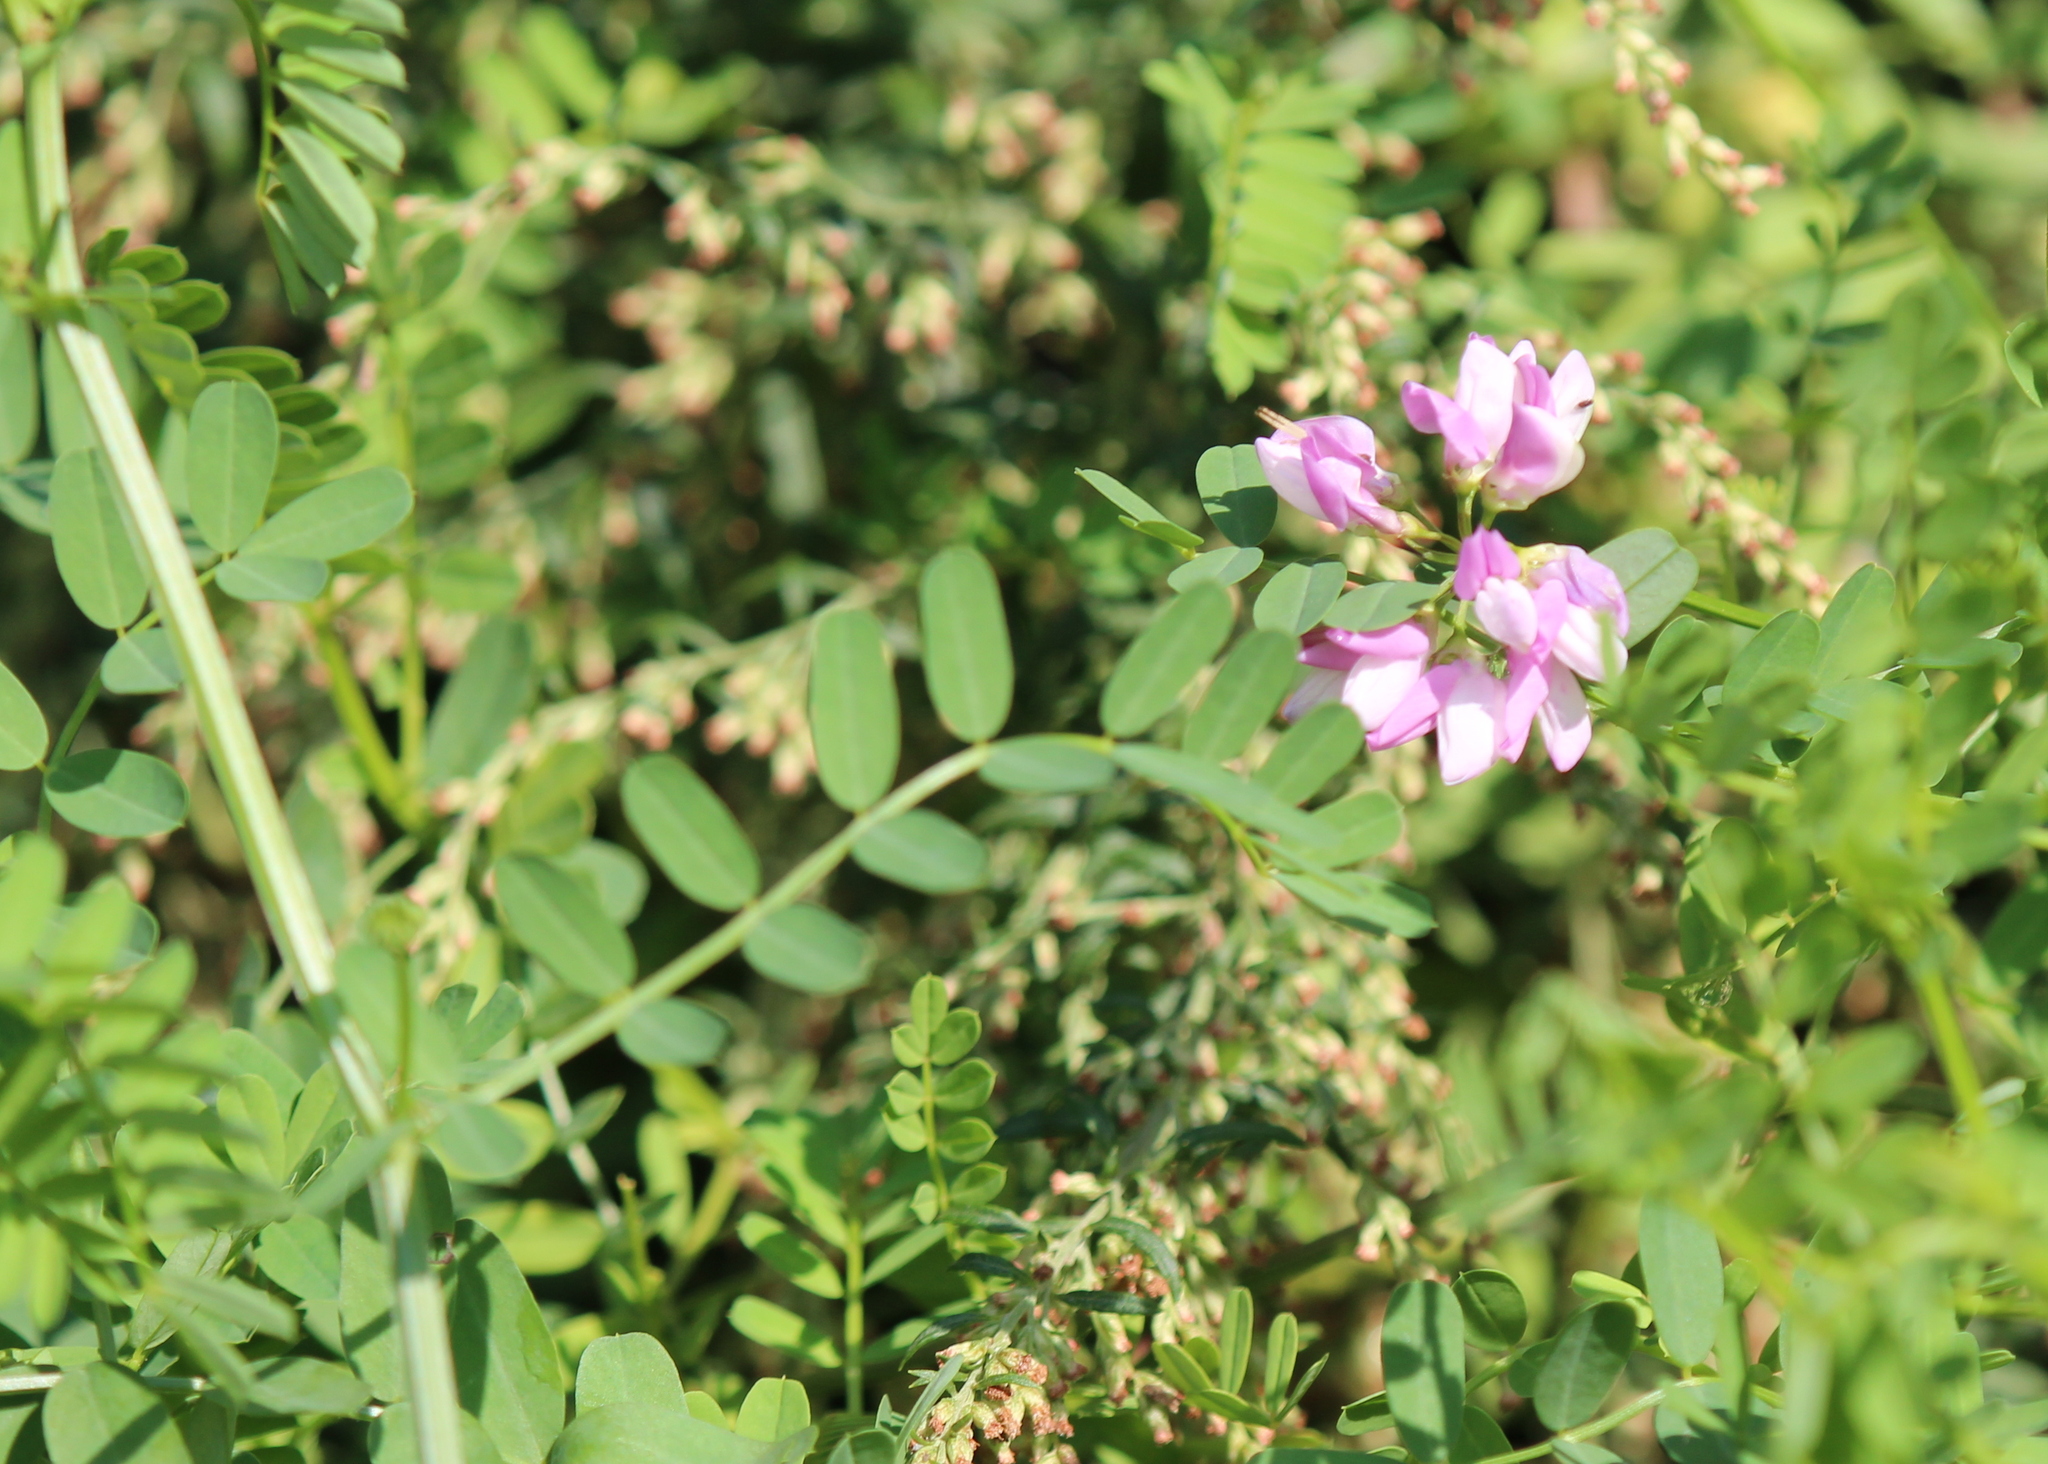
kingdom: Plantae
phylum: Tracheophyta
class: Magnoliopsida
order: Fabales
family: Fabaceae
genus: Coronilla
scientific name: Coronilla varia
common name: Crownvetch
